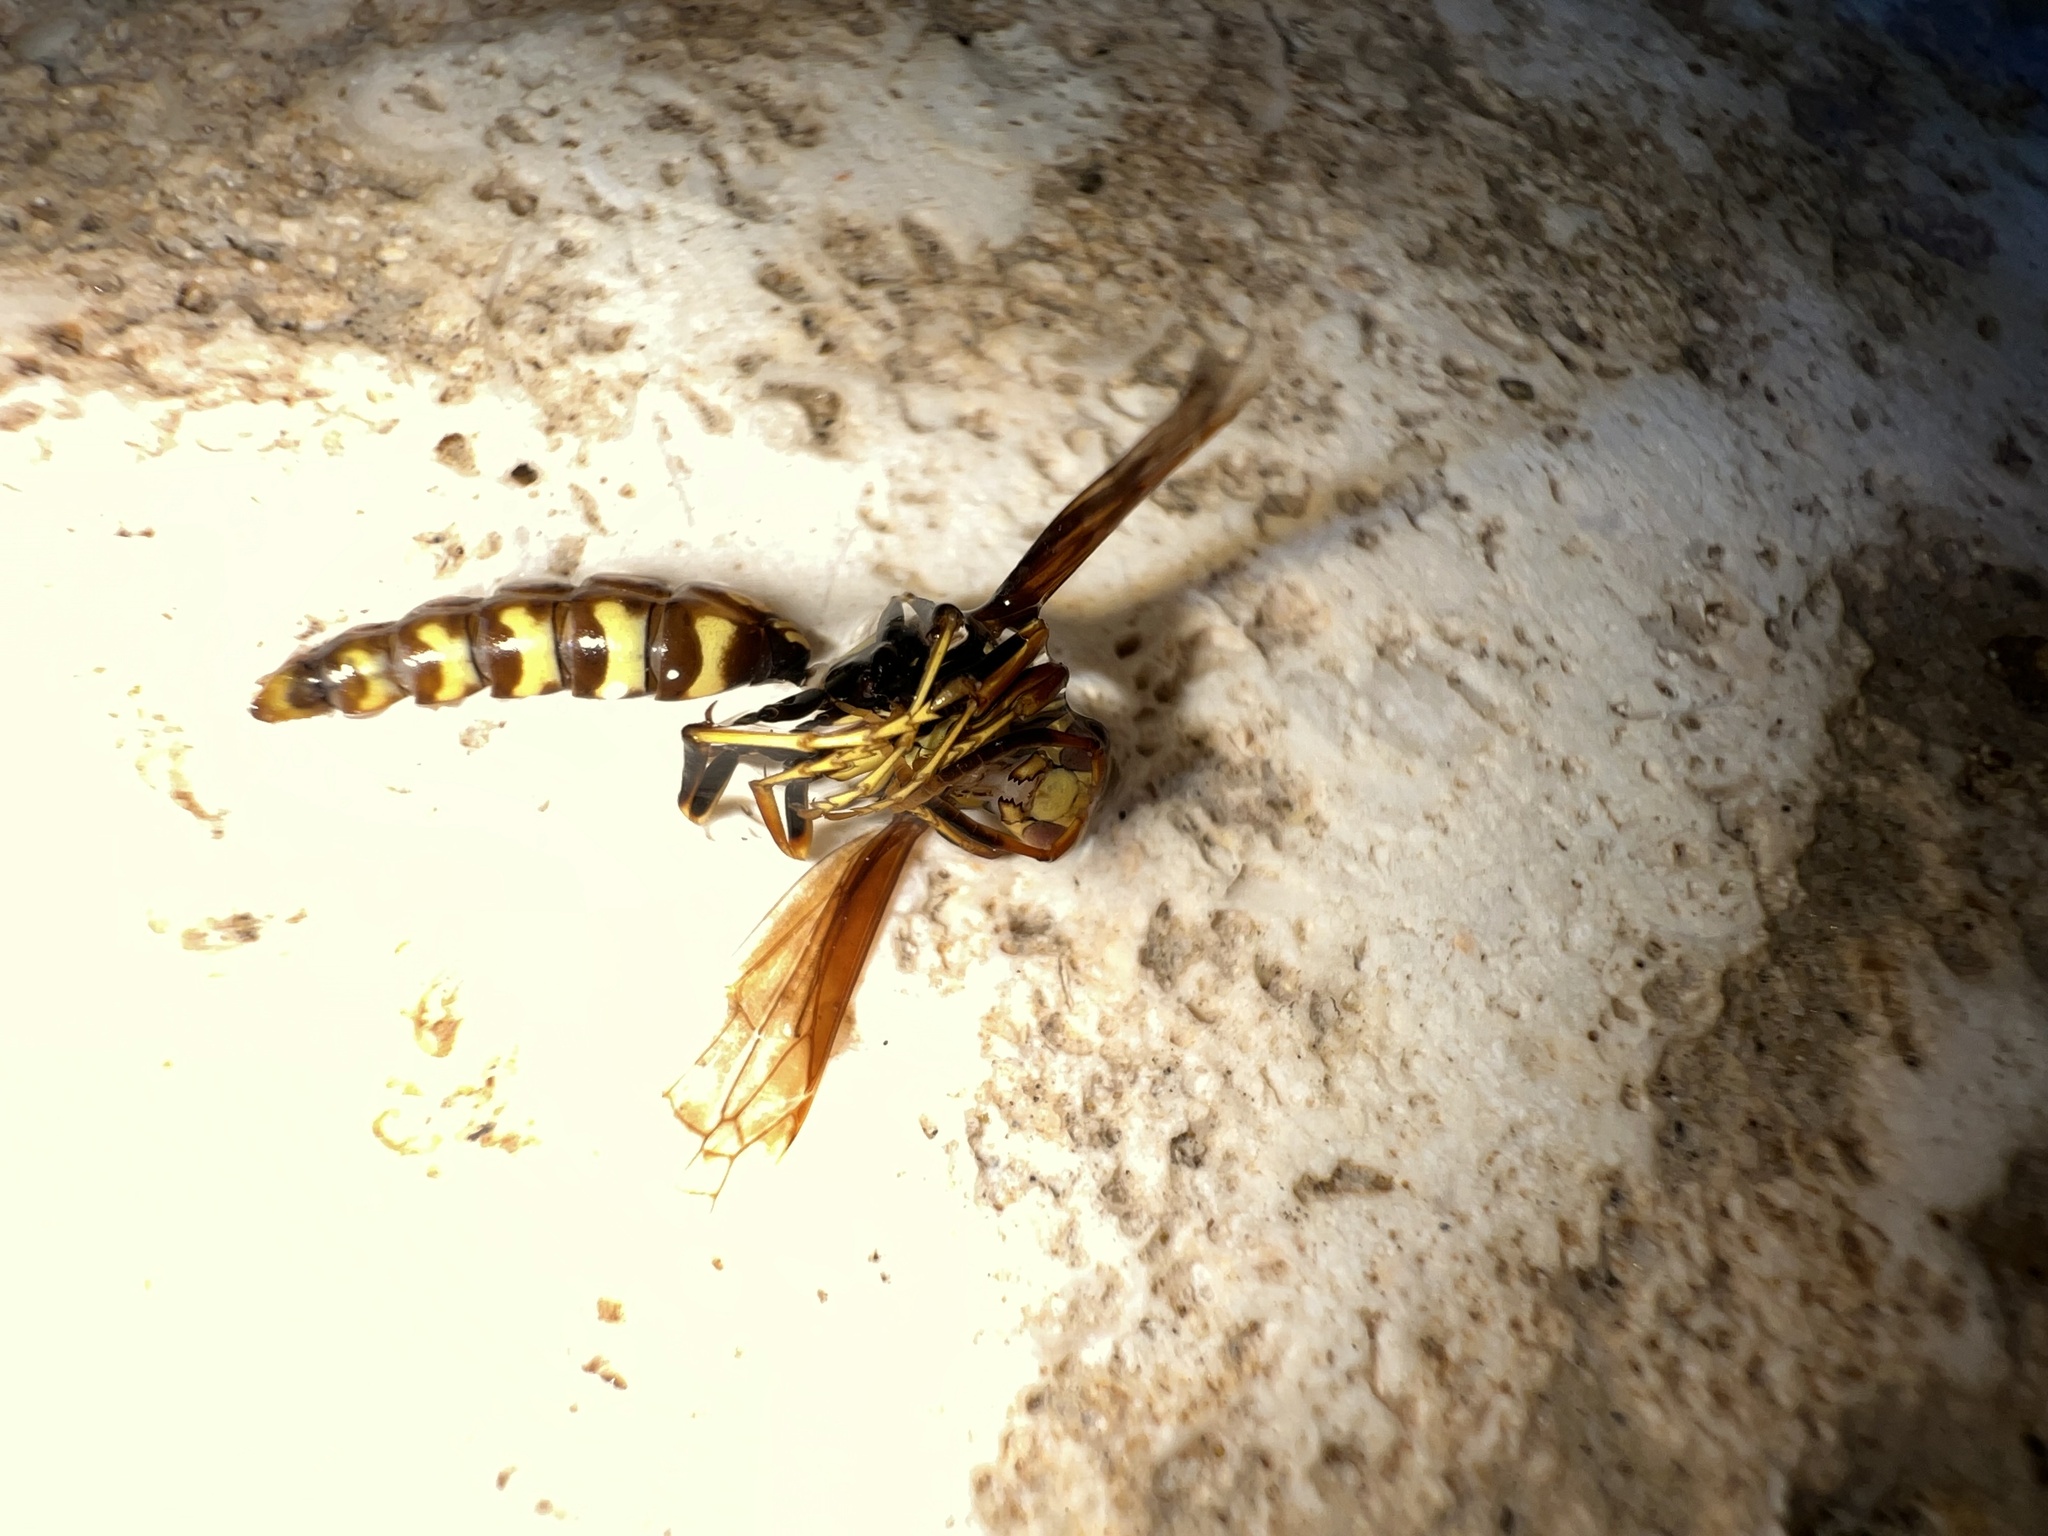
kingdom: Animalia
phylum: Arthropoda
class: Insecta
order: Hymenoptera
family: Eumenidae
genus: Polistes
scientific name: Polistes myersi
